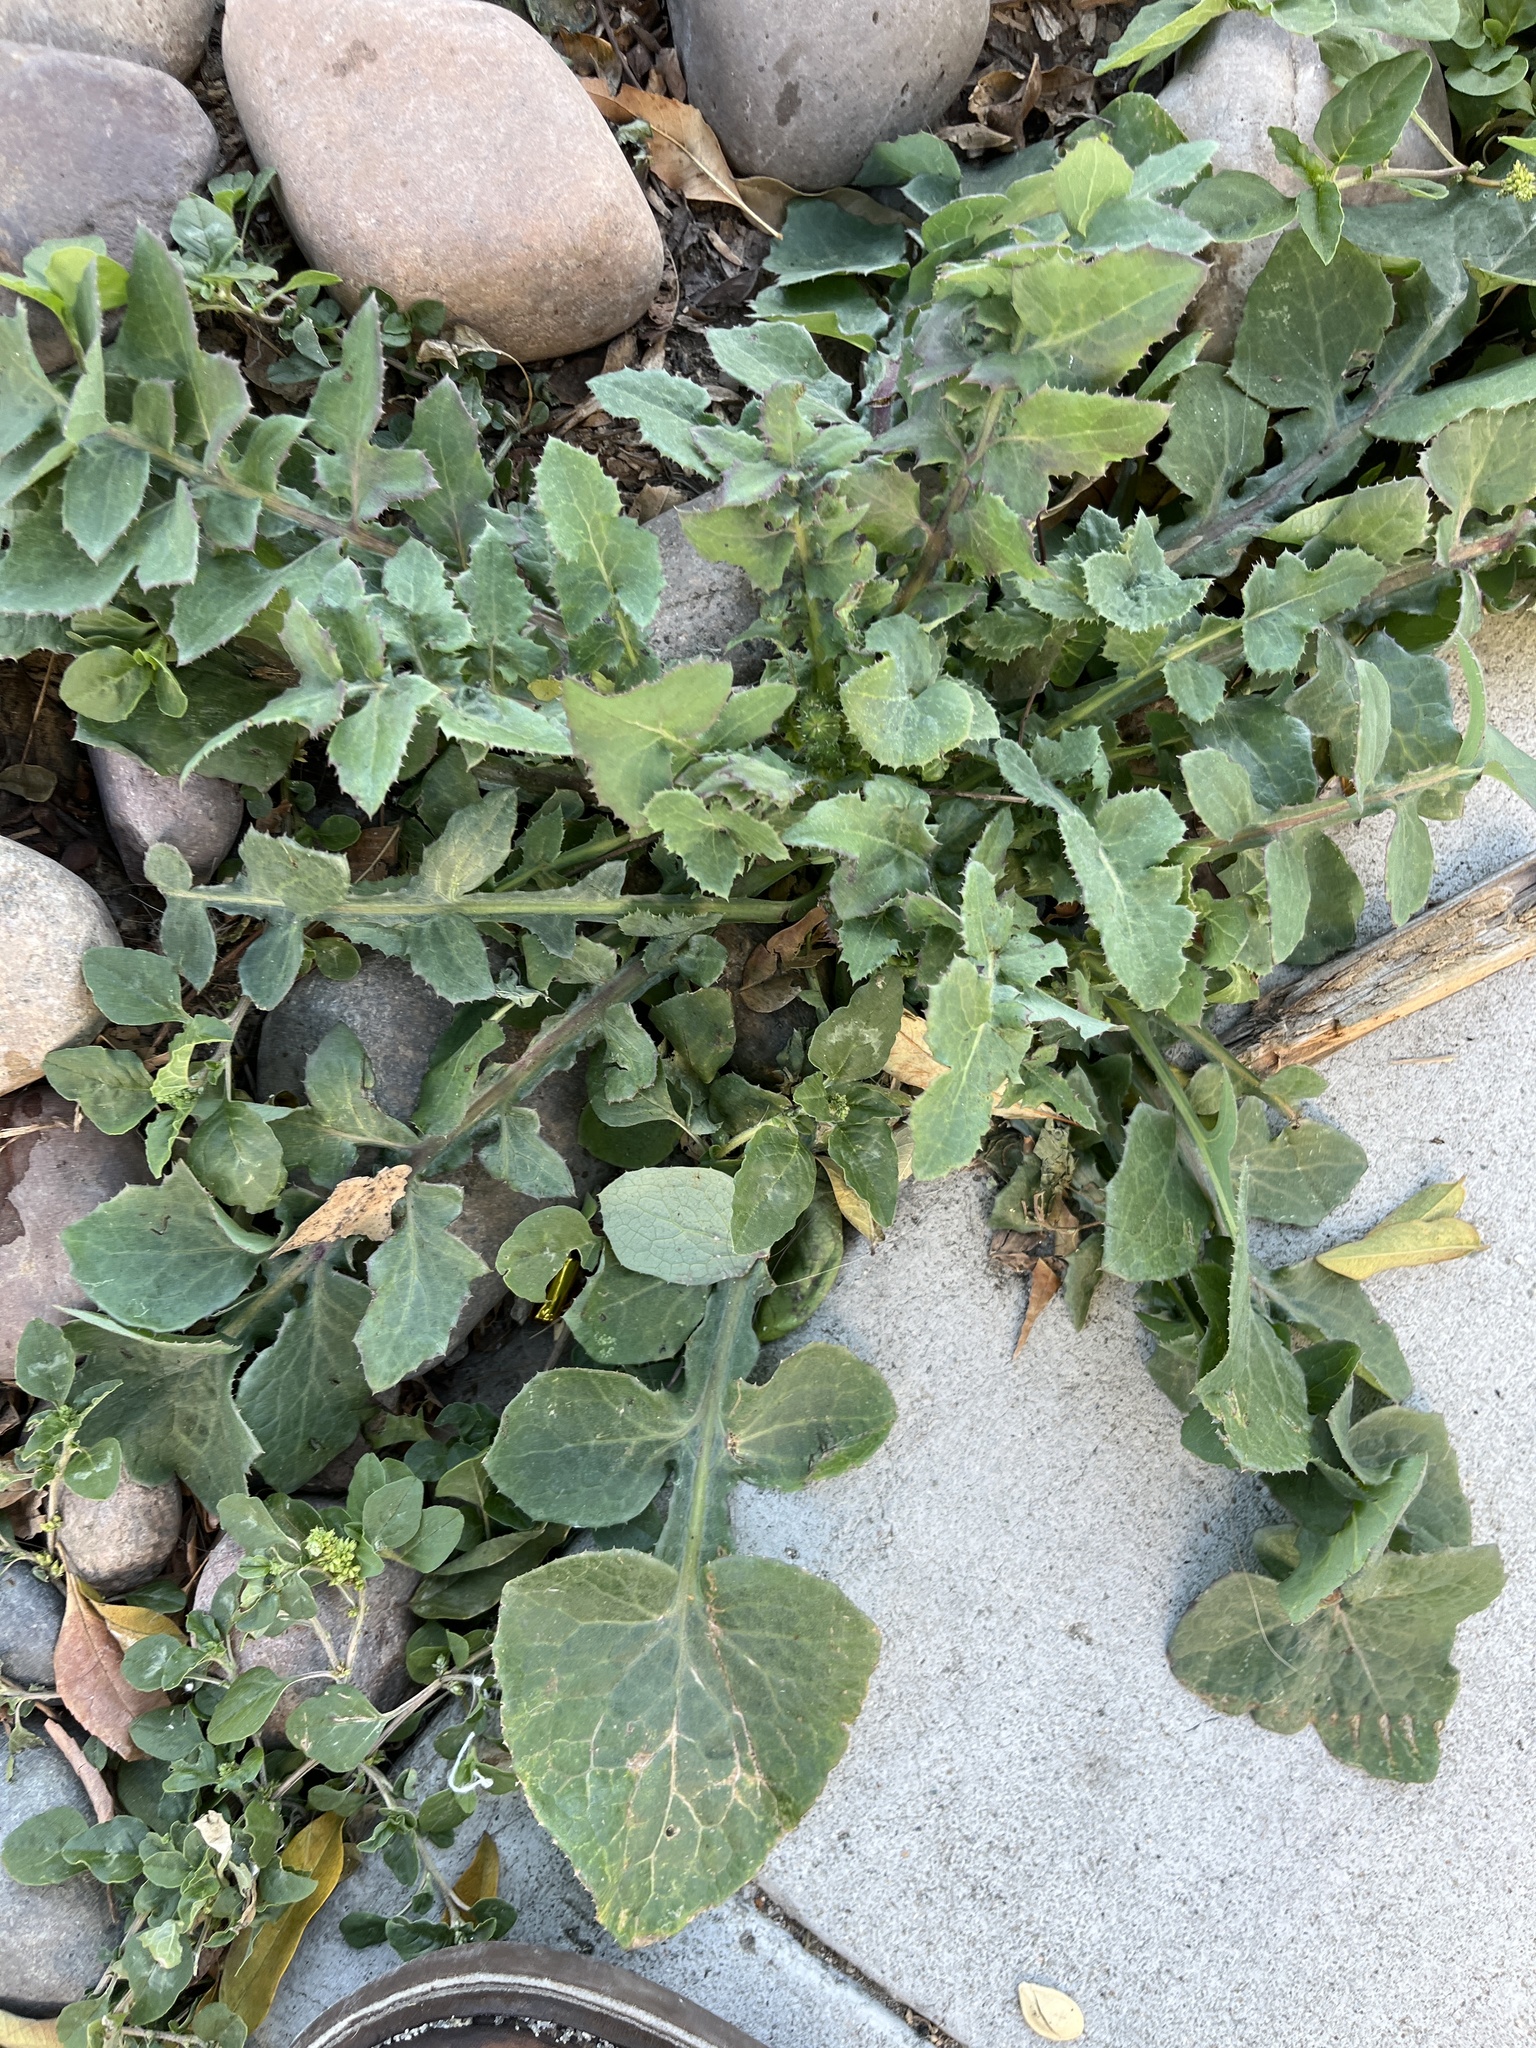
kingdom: Plantae
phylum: Tracheophyta
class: Magnoliopsida
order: Asterales
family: Asteraceae
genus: Arctotheca
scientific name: Arctotheca calendula
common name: Capeweed
